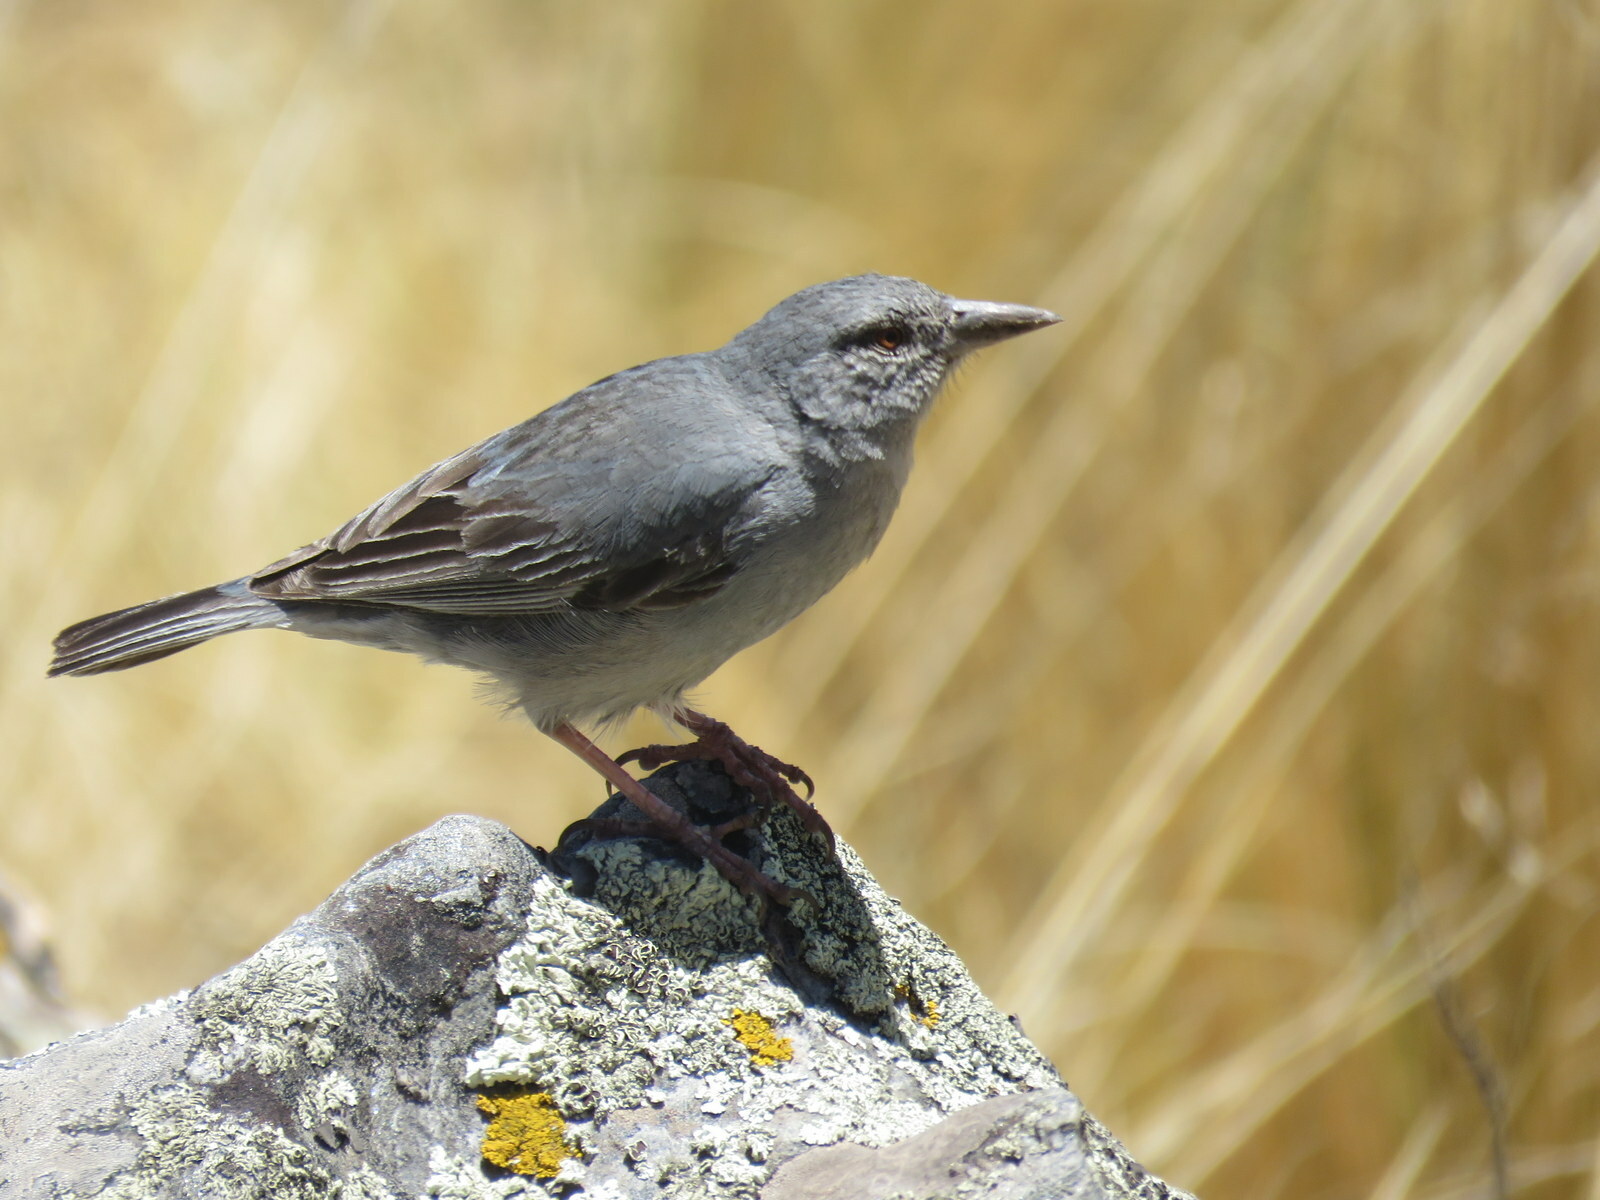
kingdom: Animalia
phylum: Chordata
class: Aves
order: Passeriformes
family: Thraupidae
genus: Idiopsar
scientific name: Idiopsar brachyurus
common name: Short-tailed finch
